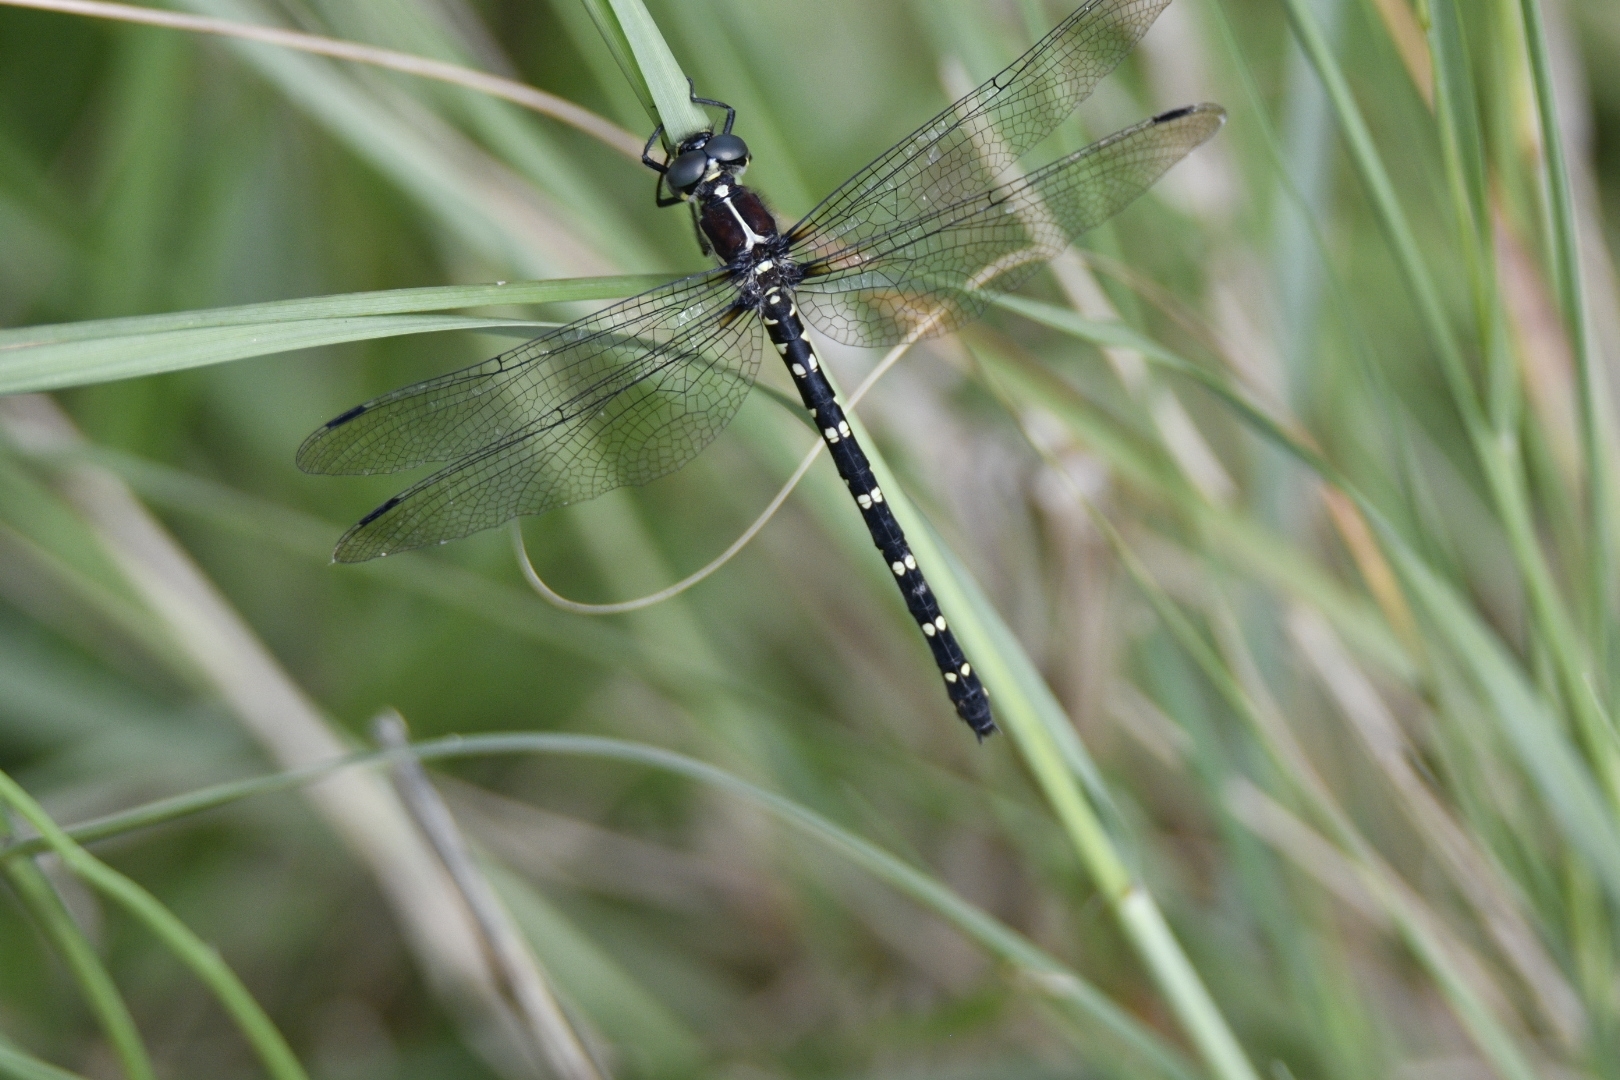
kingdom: Animalia
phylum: Arthropoda
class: Insecta
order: Odonata
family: Synthemistidae
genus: Eusynthemis
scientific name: Eusynthemis tillyardi
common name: Mountain tigertail
